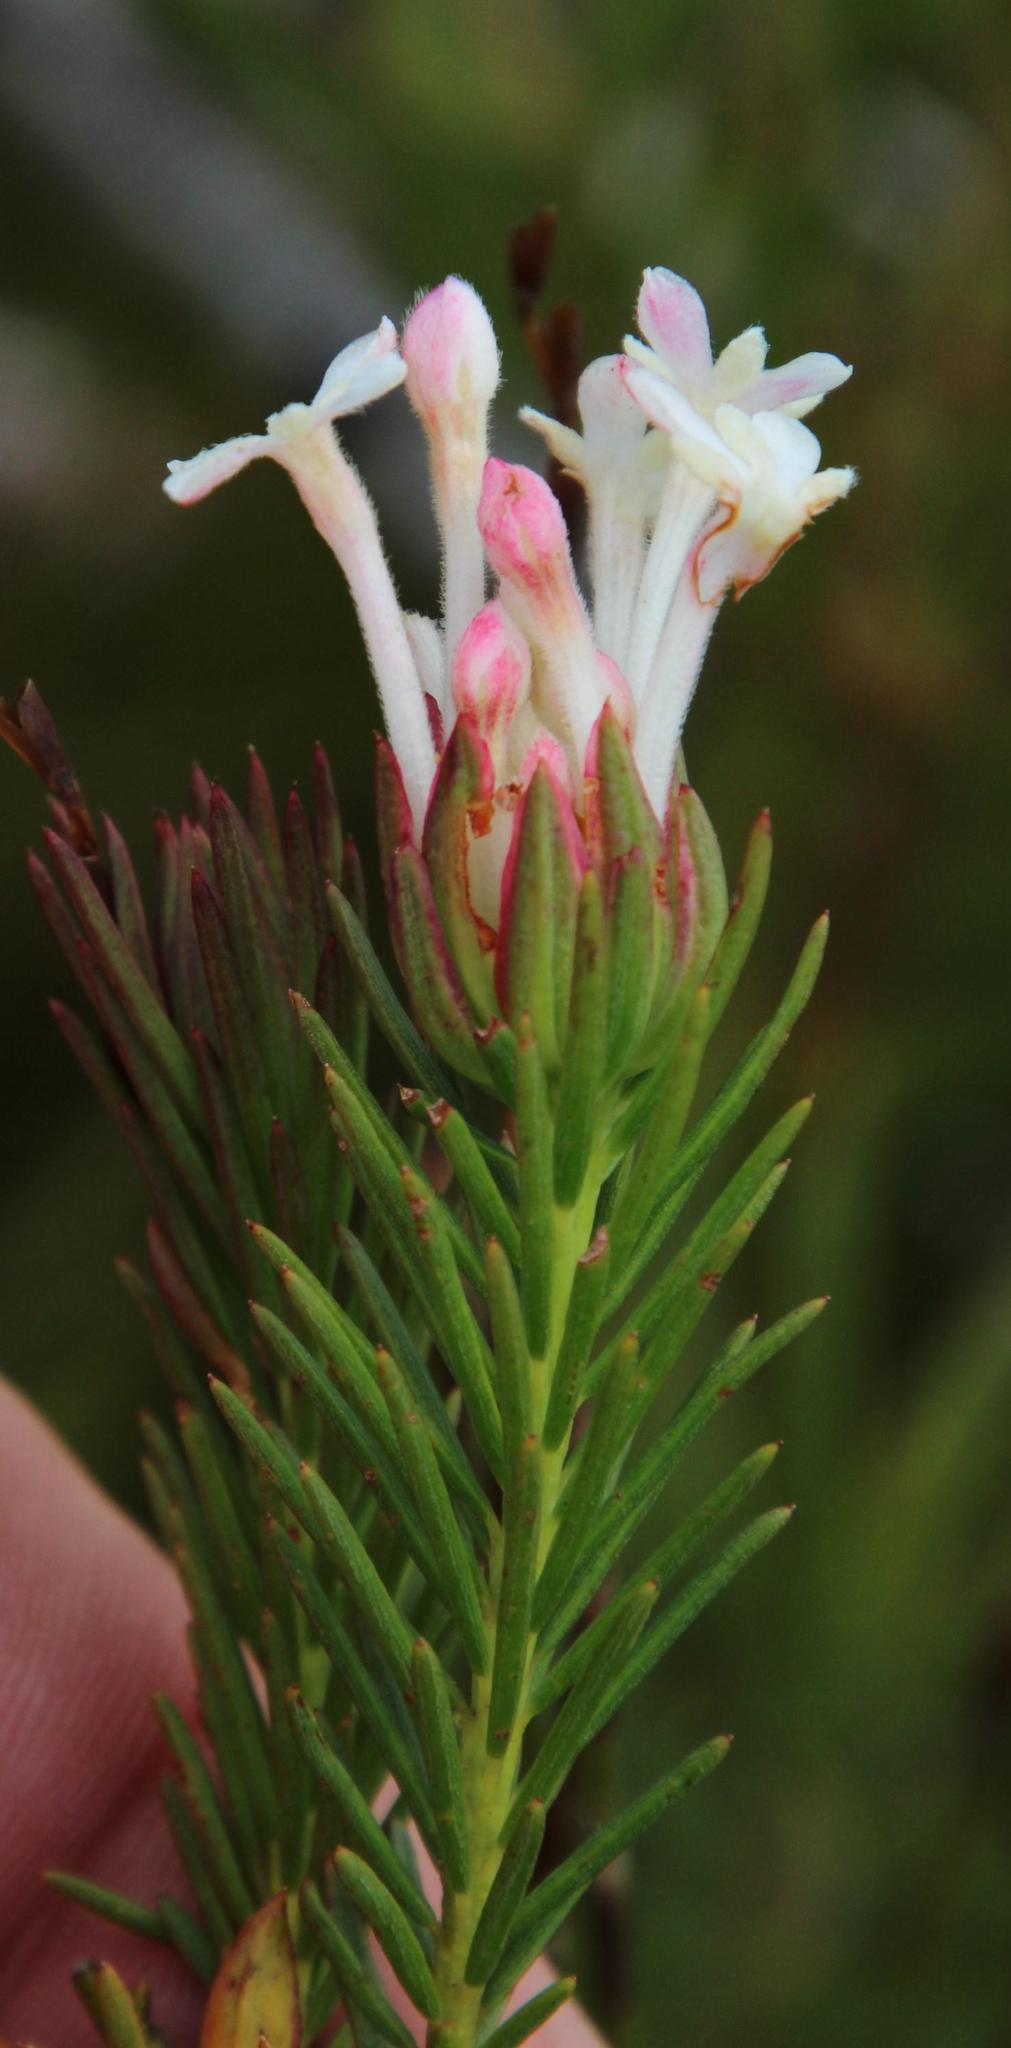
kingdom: Plantae
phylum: Tracheophyta
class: Magnoliopsida
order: Malvales
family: Thymelaeaceae
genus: Gnidia
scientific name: Gnidia pinifolia
